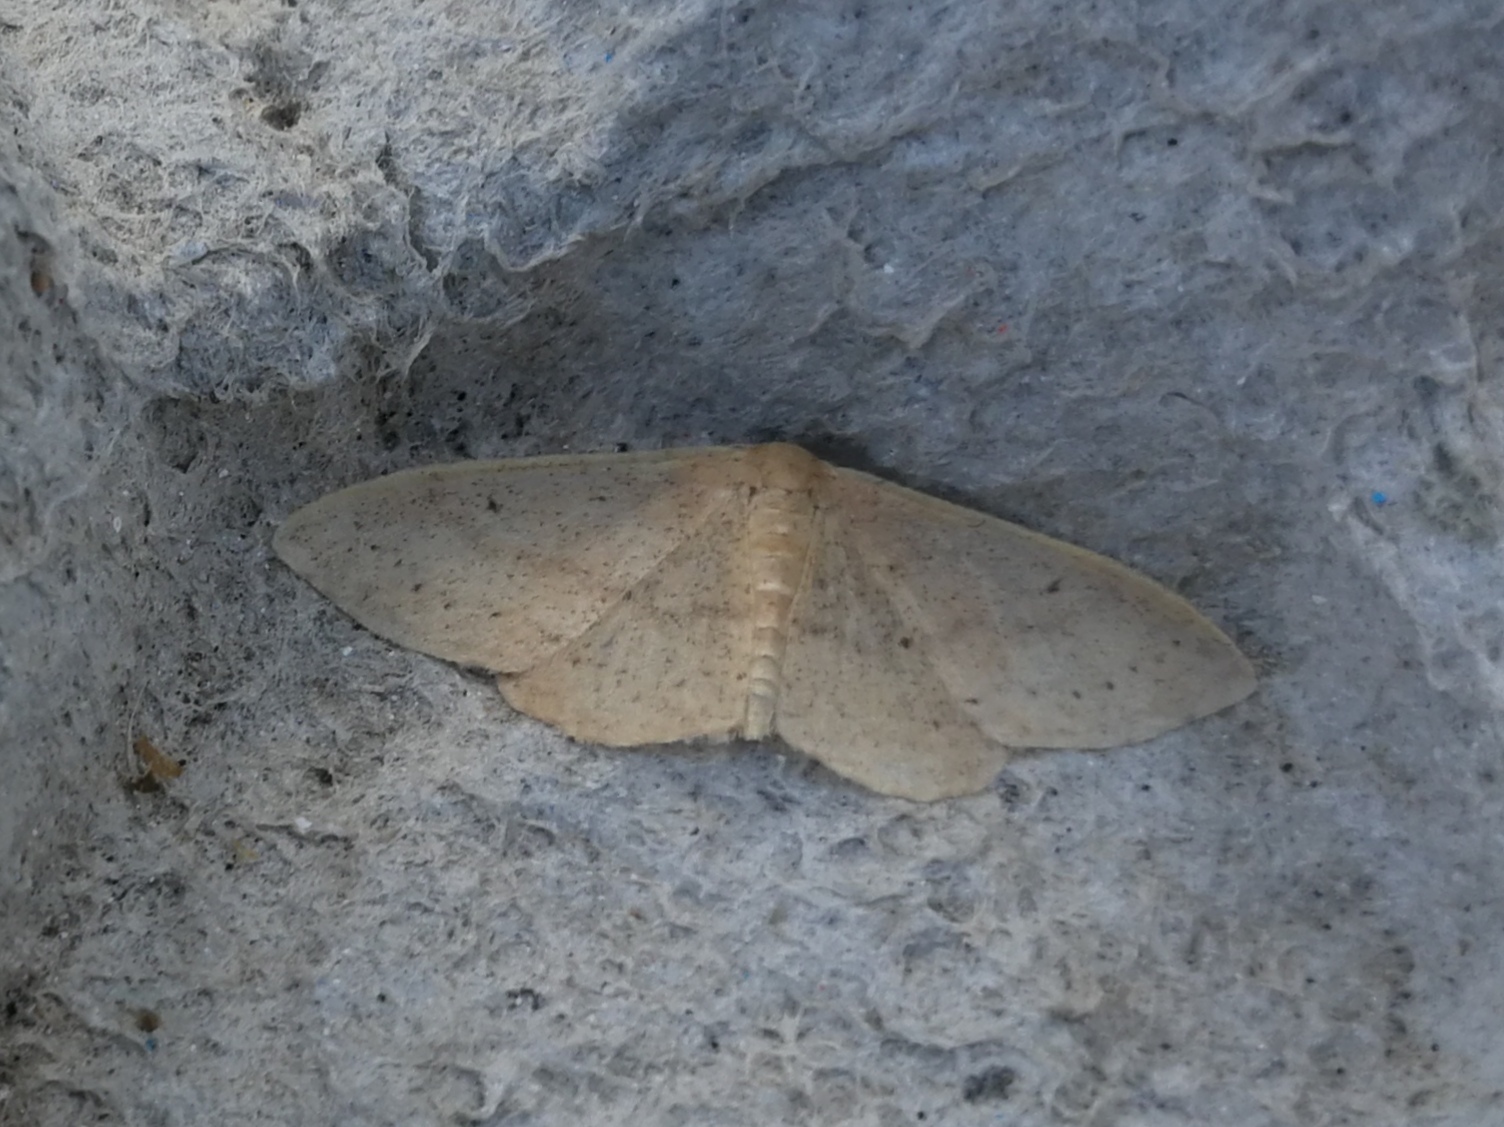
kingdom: Animalia
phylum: Arthropoda
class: Insecta
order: Lepidoptera
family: Geometridae
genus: Idaea
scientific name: Idaea eugeniata
